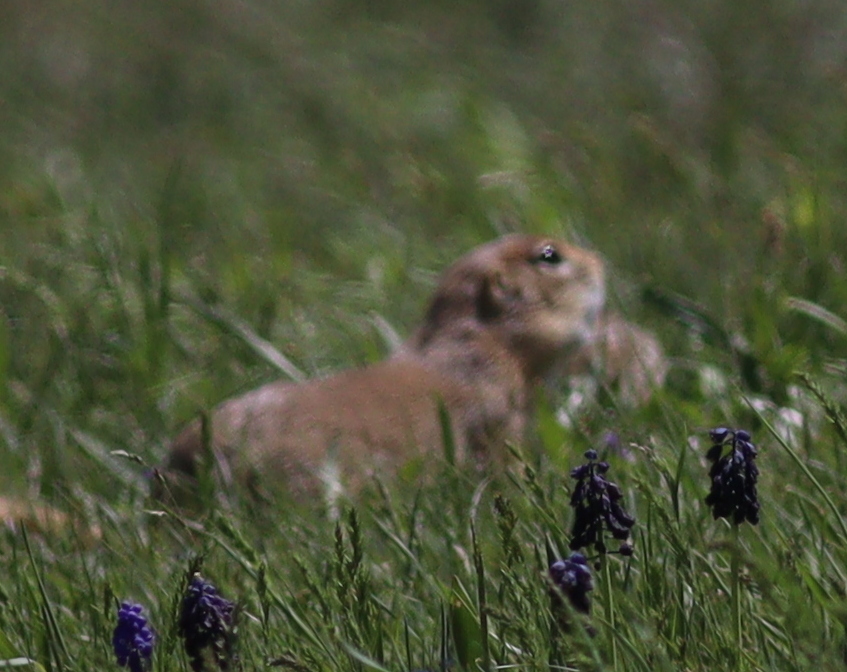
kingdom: Animalia
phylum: Chordata
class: Mammalia
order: Rodentia
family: Sciuridae
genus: Spermophilus
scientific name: Spermophilus xanthoprymnus
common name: Asia minor ground squirrel
